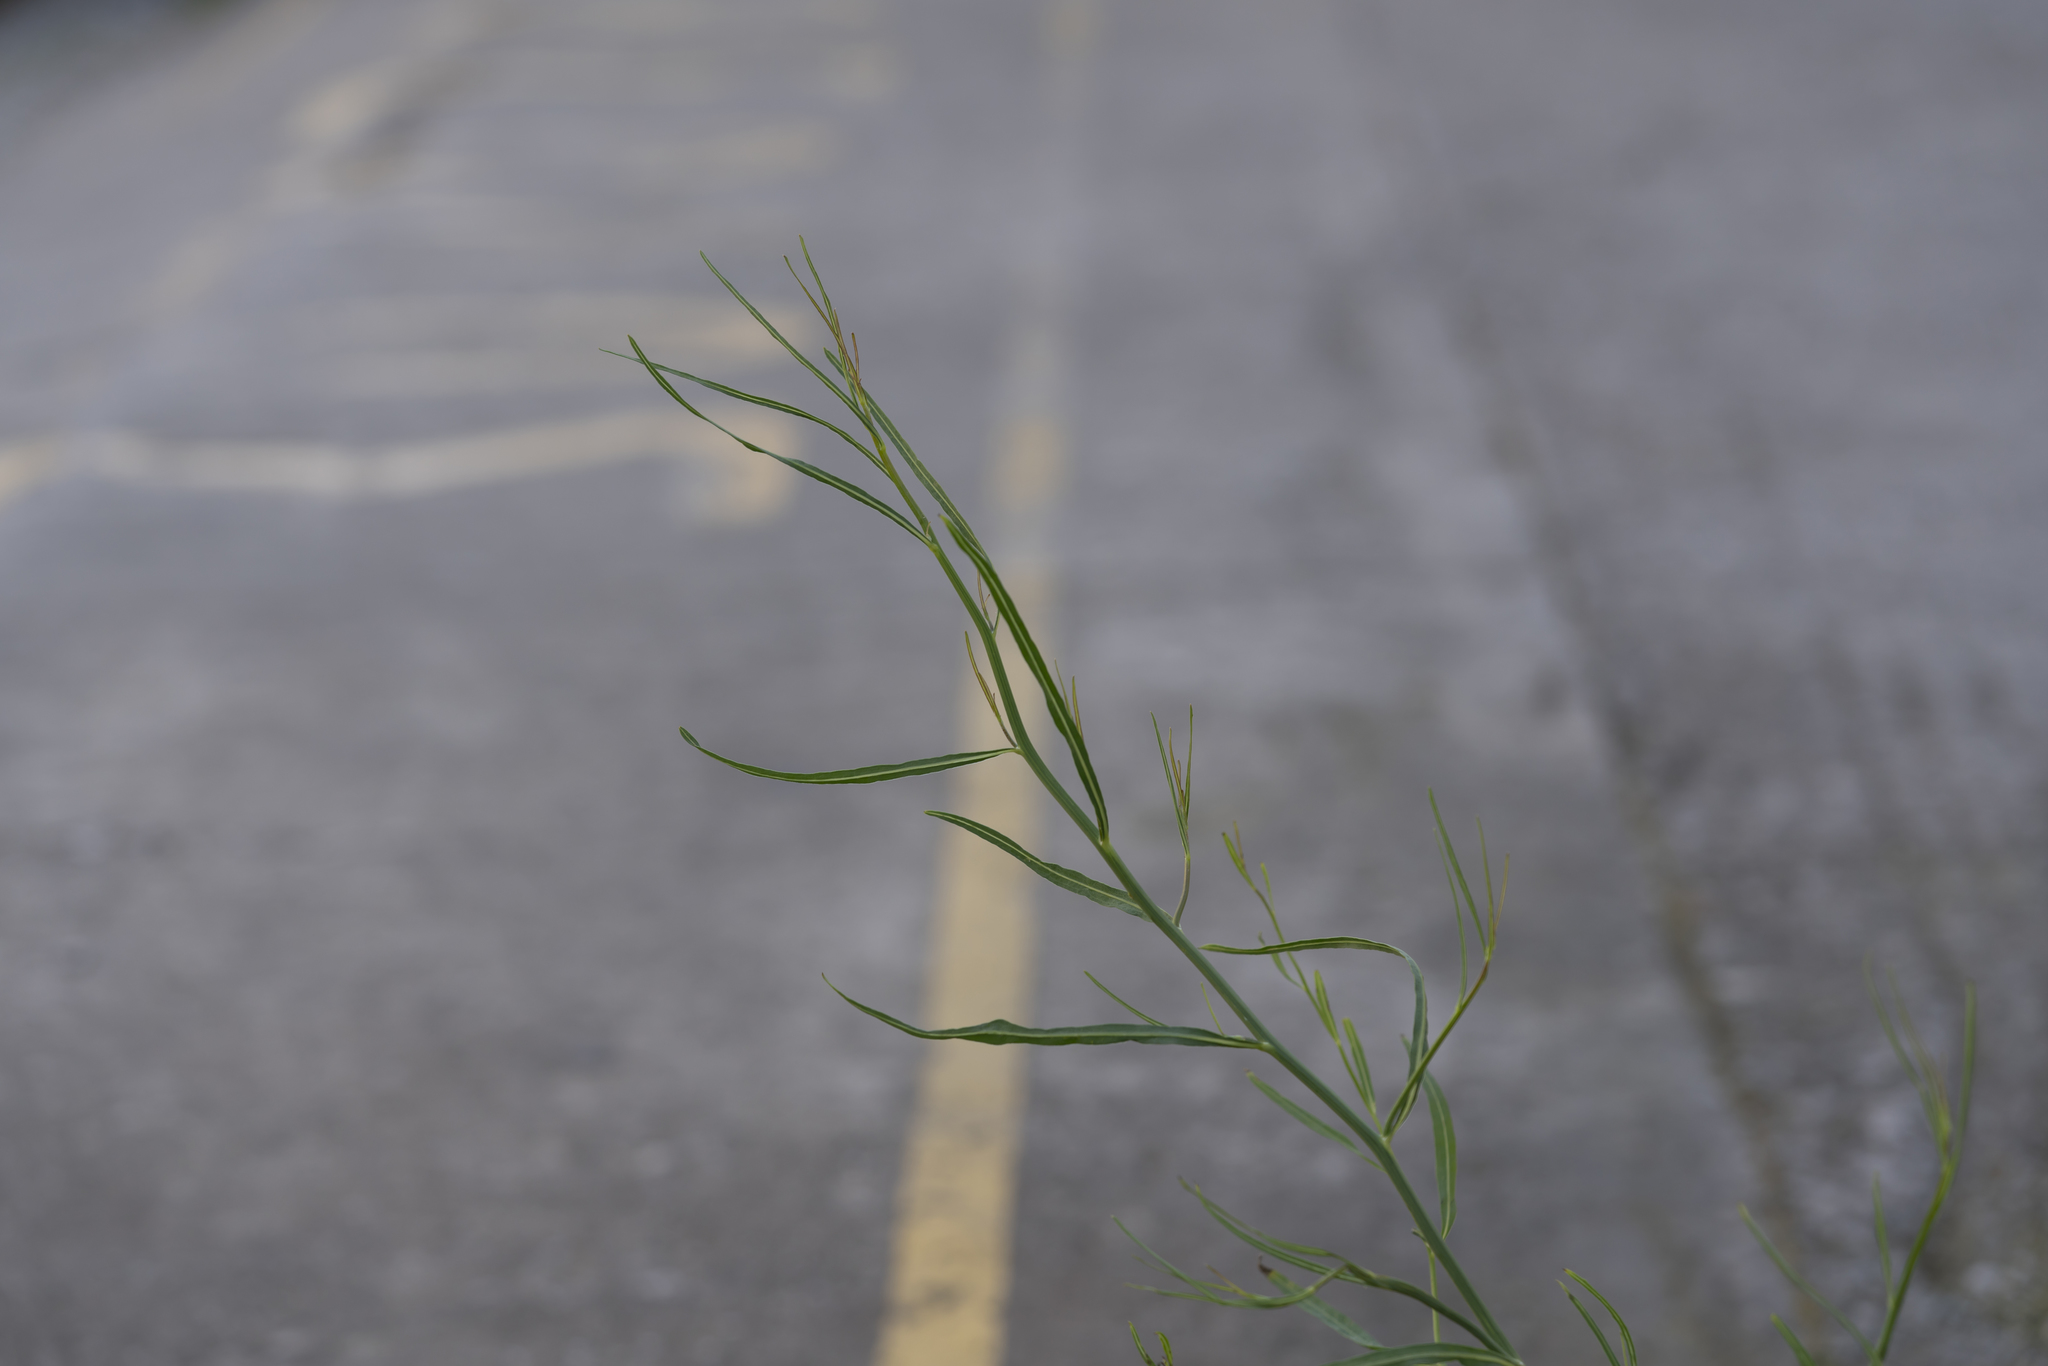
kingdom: Plantae
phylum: Tracheophyta
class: Magnoliopsida
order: Asterales
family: Asteraceae
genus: Chondrilla
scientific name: Chondrilla juncea
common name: Skeleton weed
